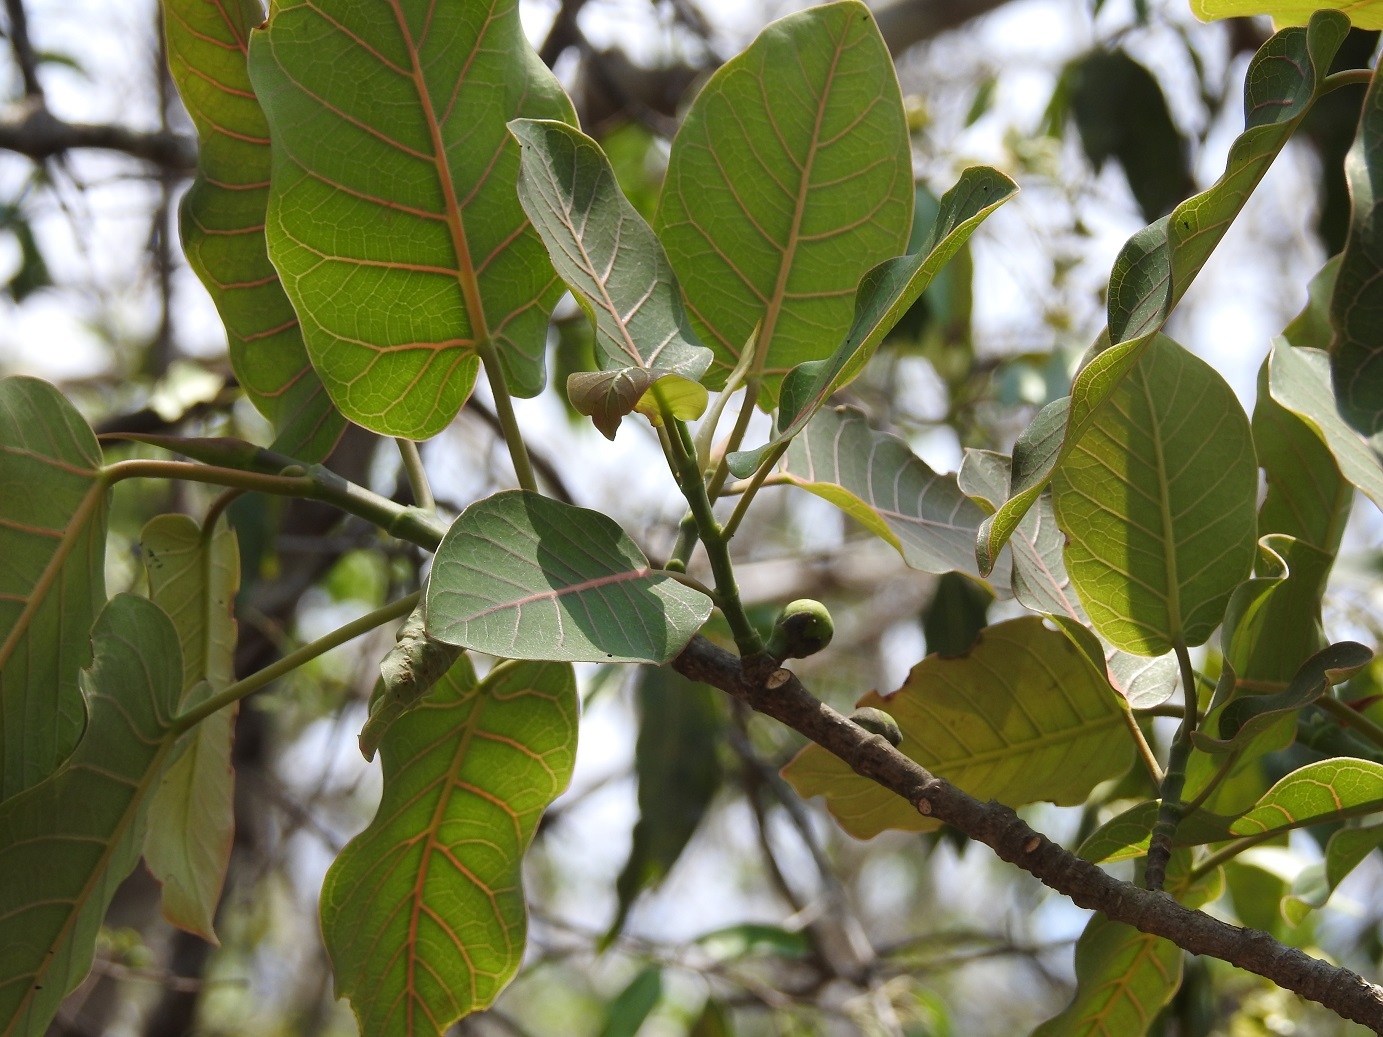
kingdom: Plantae
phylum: Tracheophyta
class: Magnoliopsida
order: Rosales
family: Moraceae
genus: Ficus
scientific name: Ficus aurea
